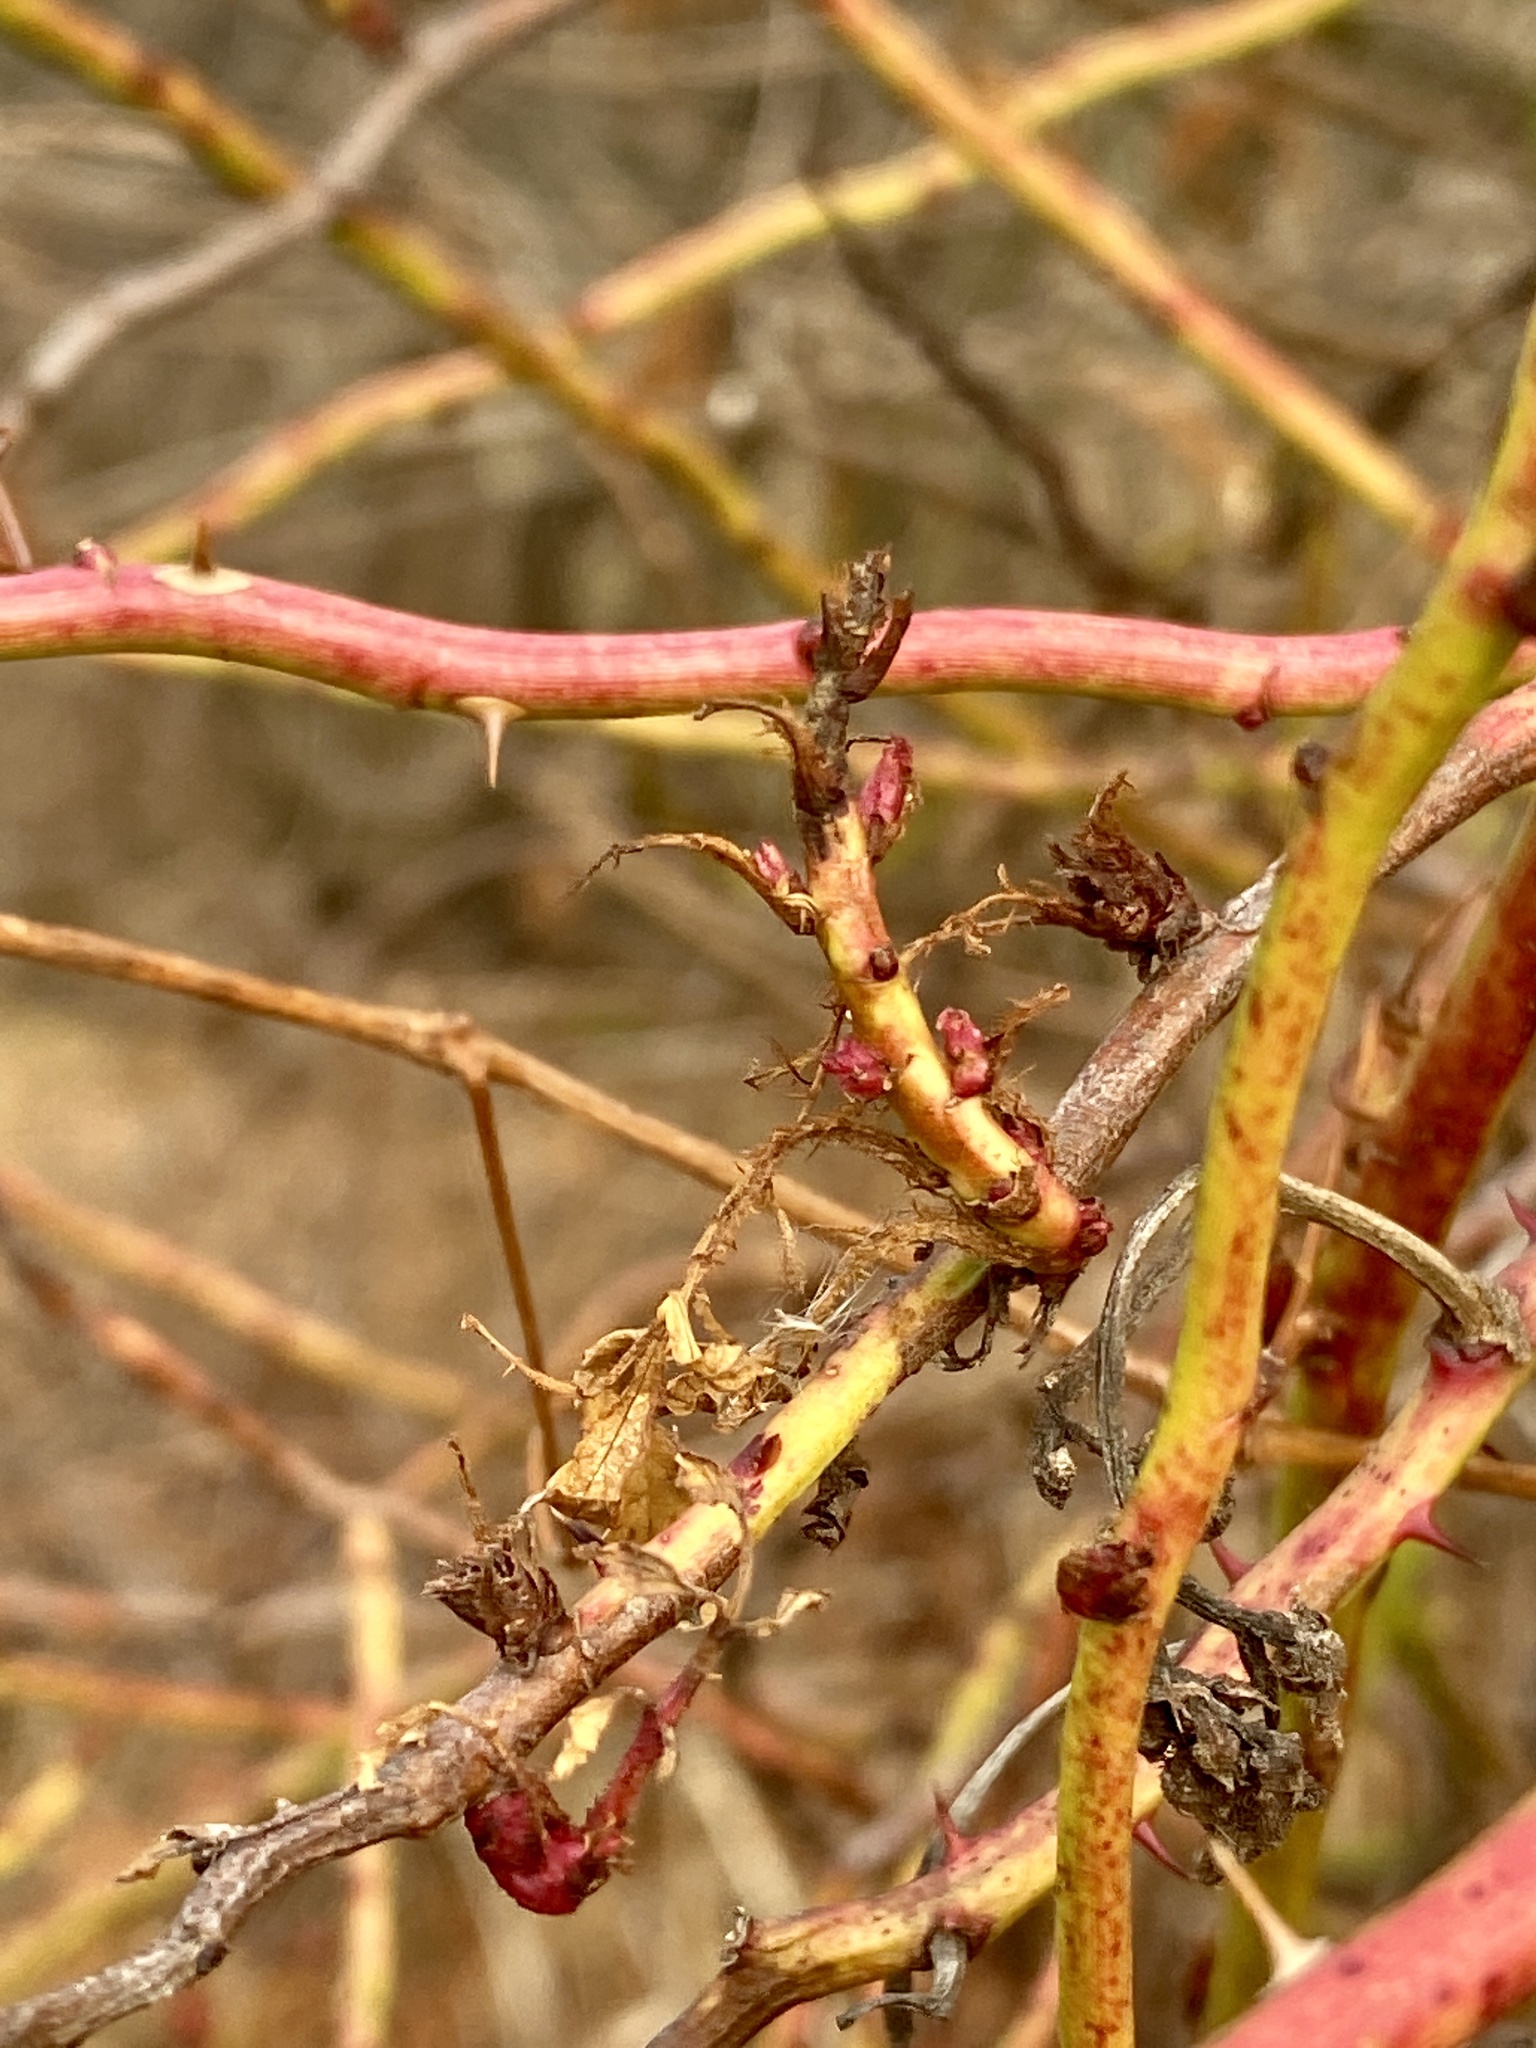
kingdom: Viruses
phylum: Negarnaviricota
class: Ellioviricetes
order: Bunyavirales
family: Fimoviridae
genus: Emaravirus
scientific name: Emaravirus rosae
